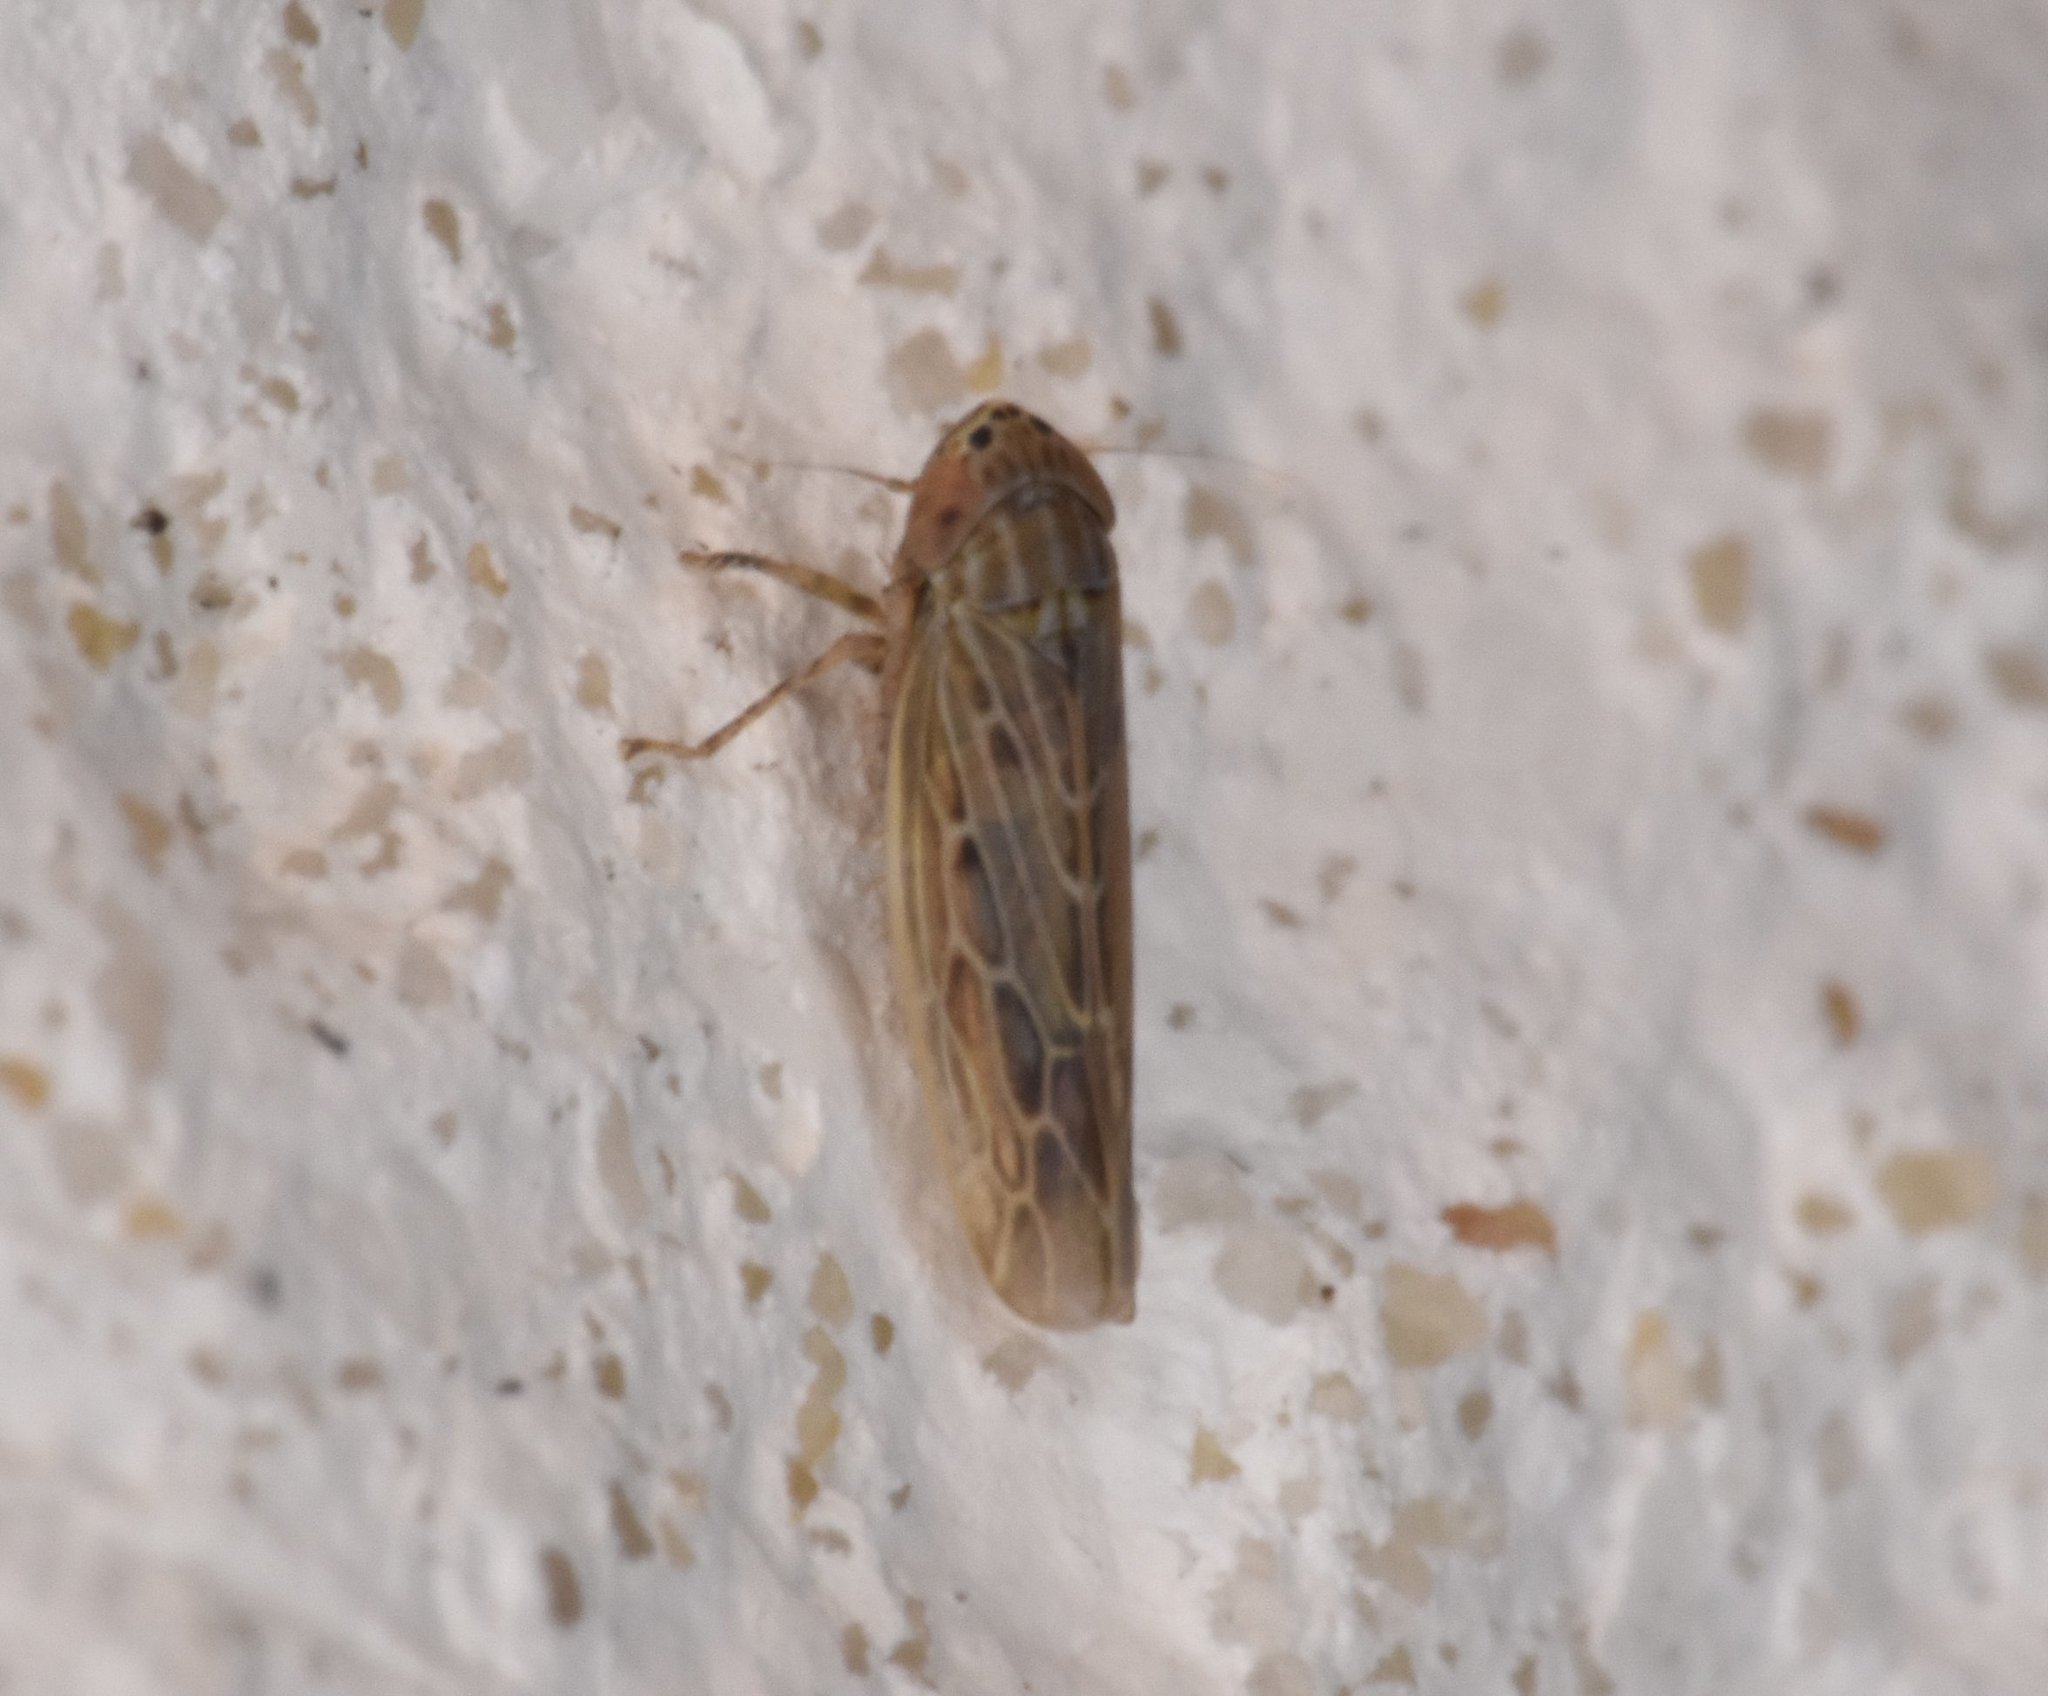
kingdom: Animalia
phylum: Arthropoda
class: Insecta
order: Hemiptera
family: Cicadellidae
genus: Graminella
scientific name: Graminella sonora
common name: Lesser lawn leafhopper
